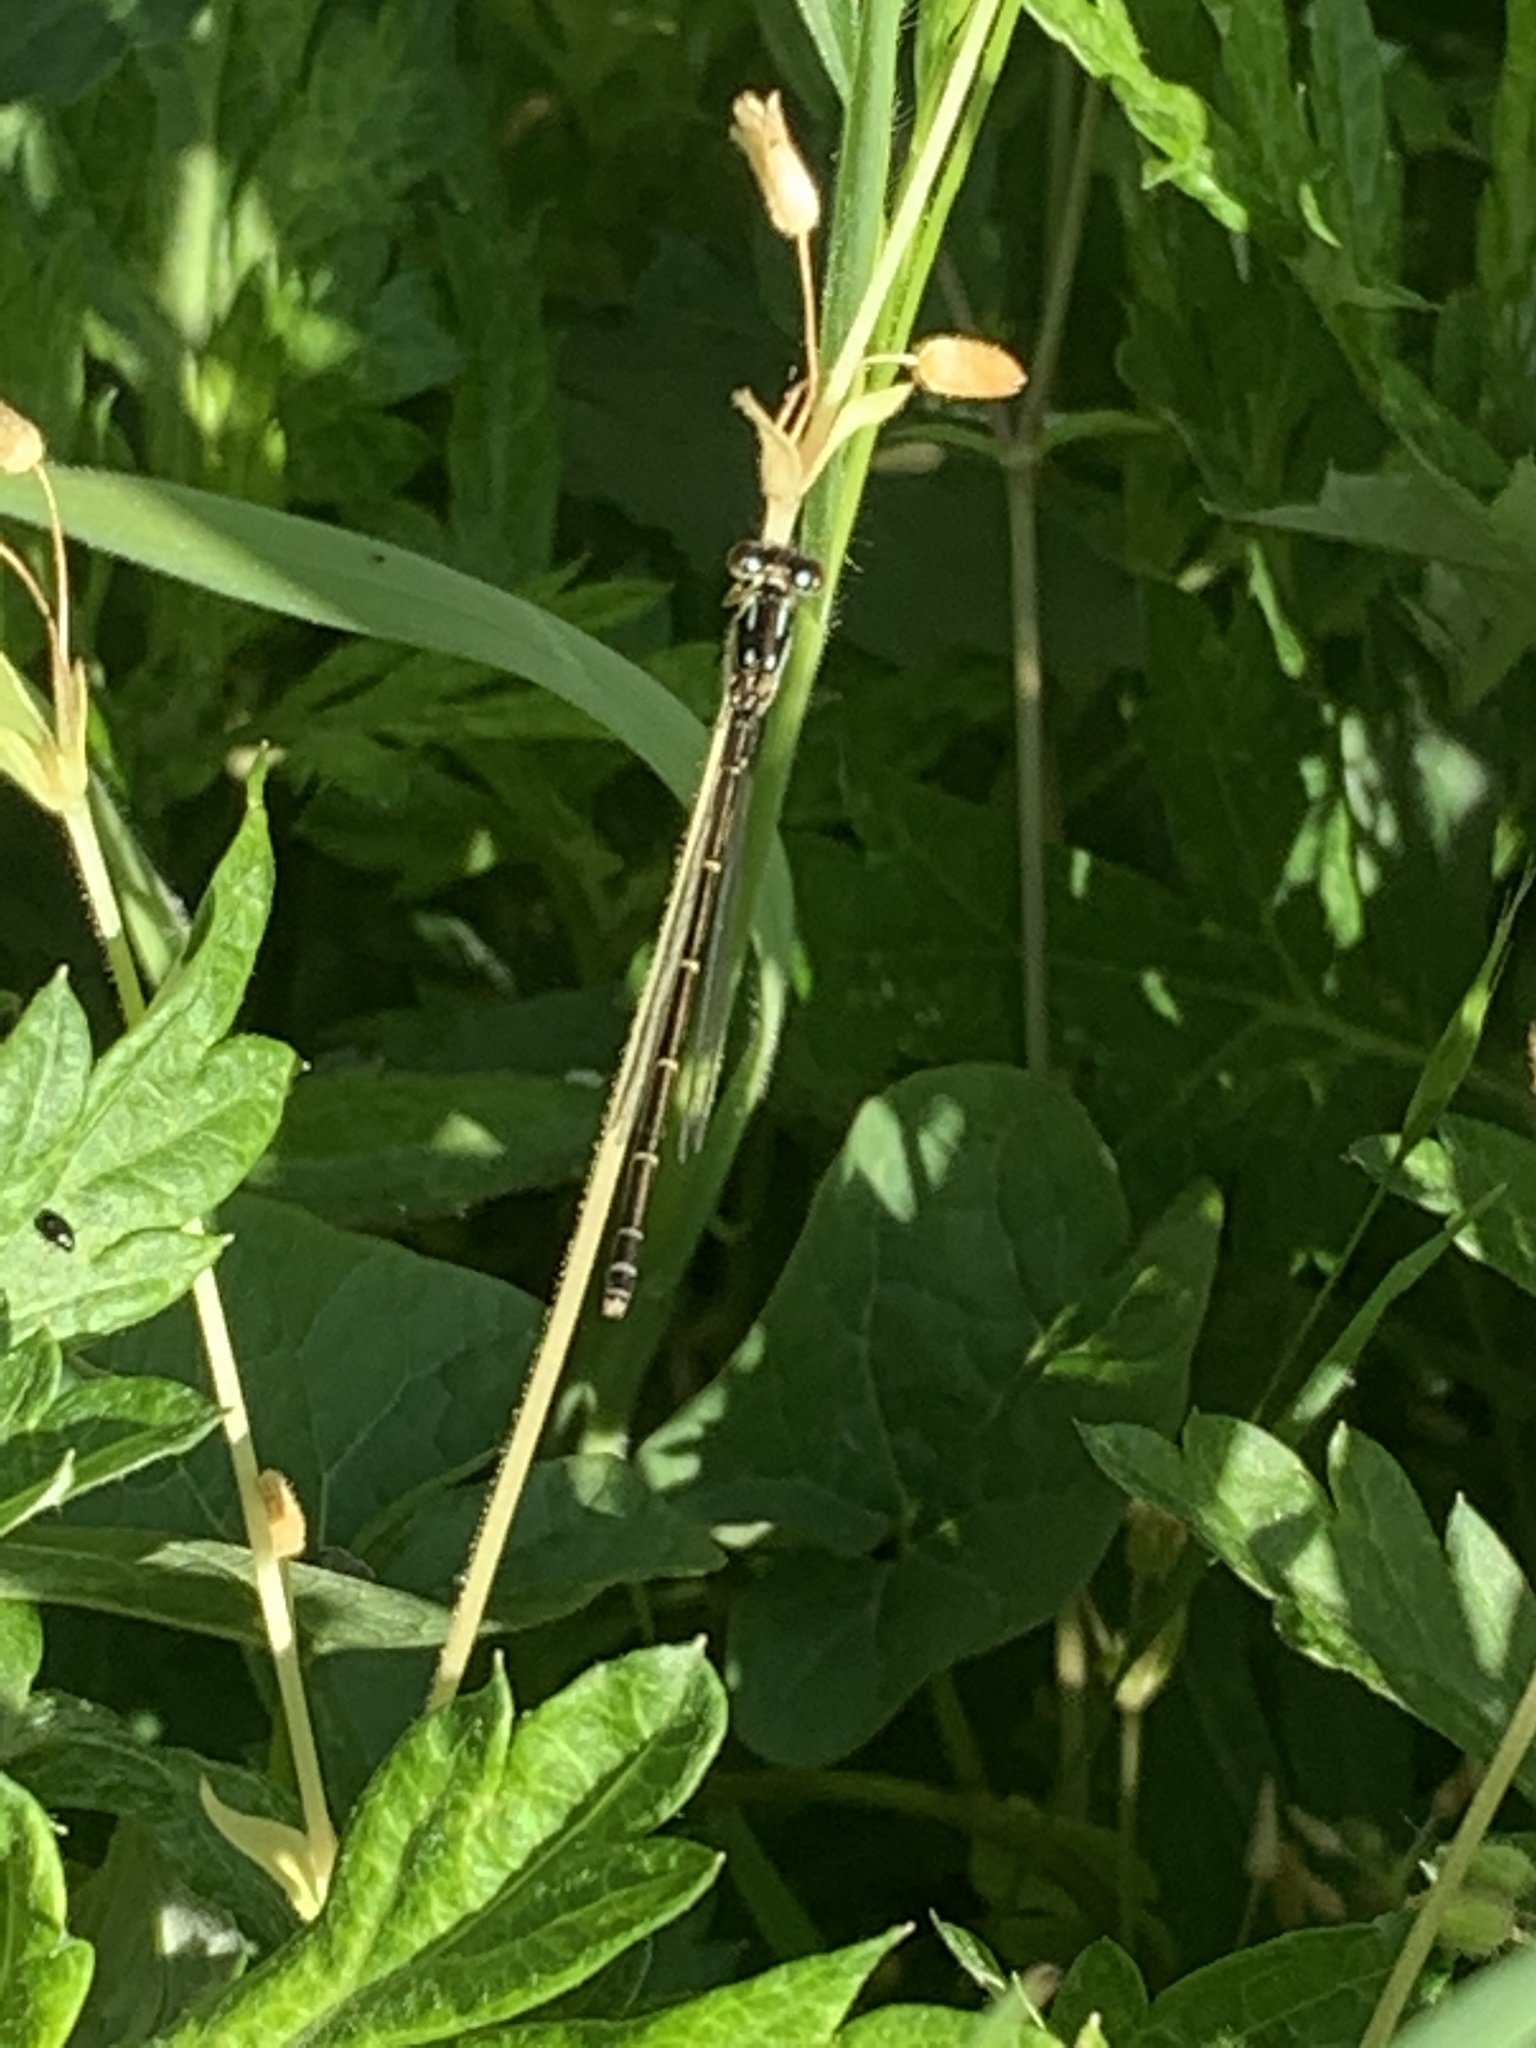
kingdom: Animalia
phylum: Arthropoda
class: Insecta
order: Odonata
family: Coenagrionidae
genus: Ischnura
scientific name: Ischnura posita
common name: Fragile forktail
